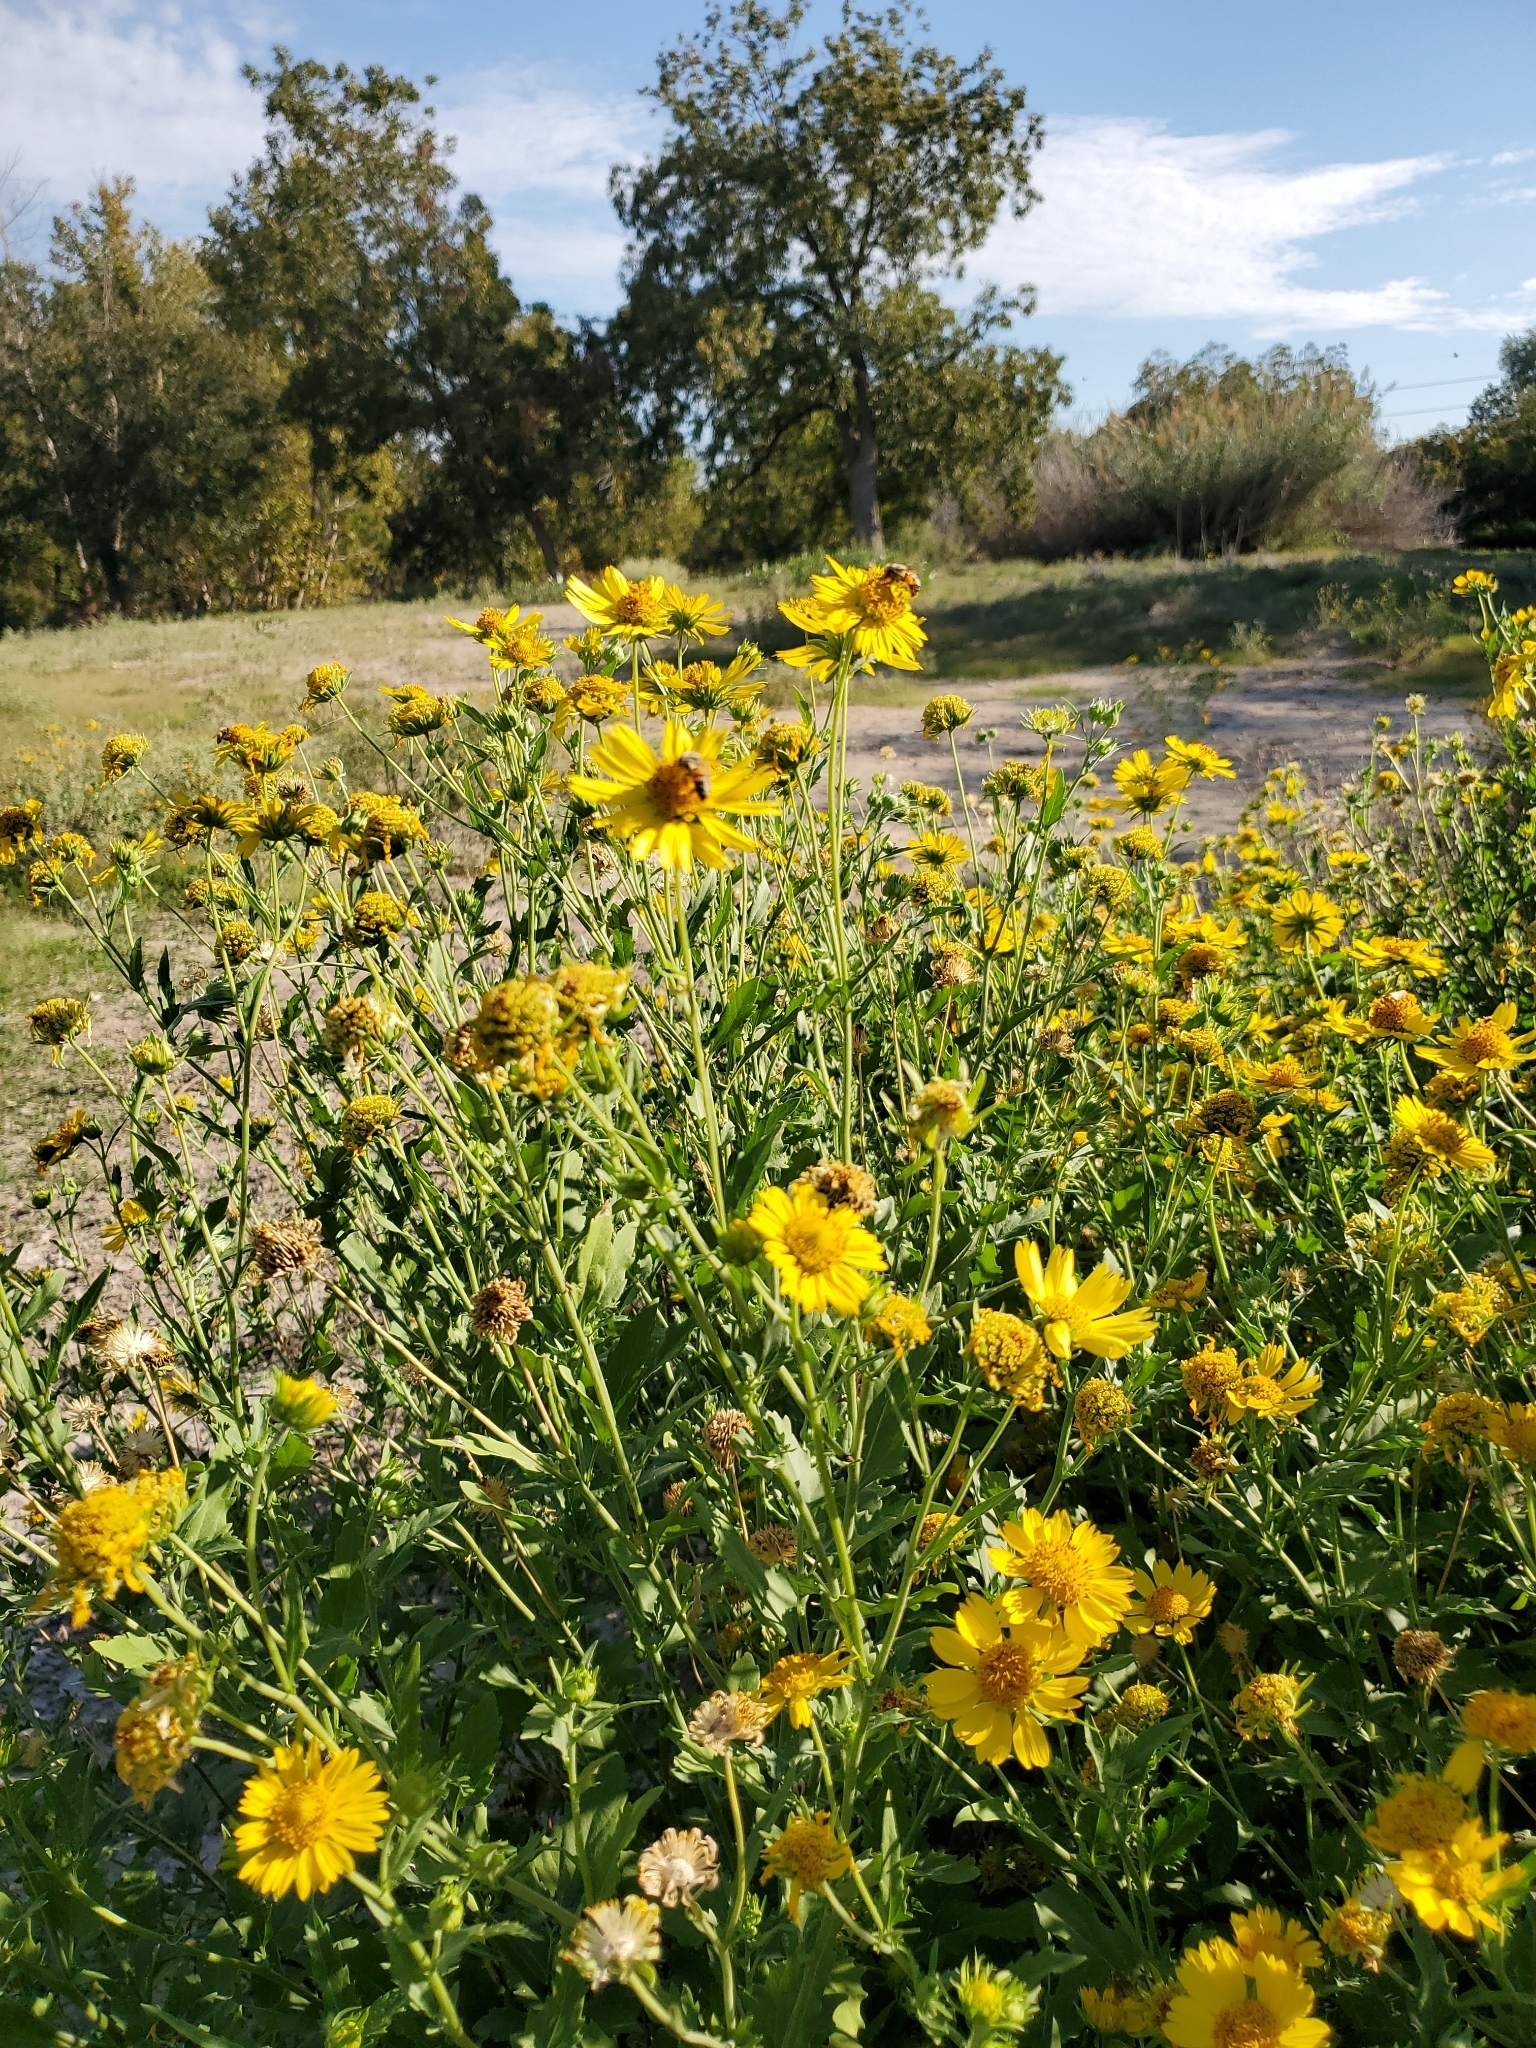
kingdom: Animalia
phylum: Arthropoda
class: Insecta
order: Hymenoptera
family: Apidae
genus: Apis
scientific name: Apis mellifera
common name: Honey bee
